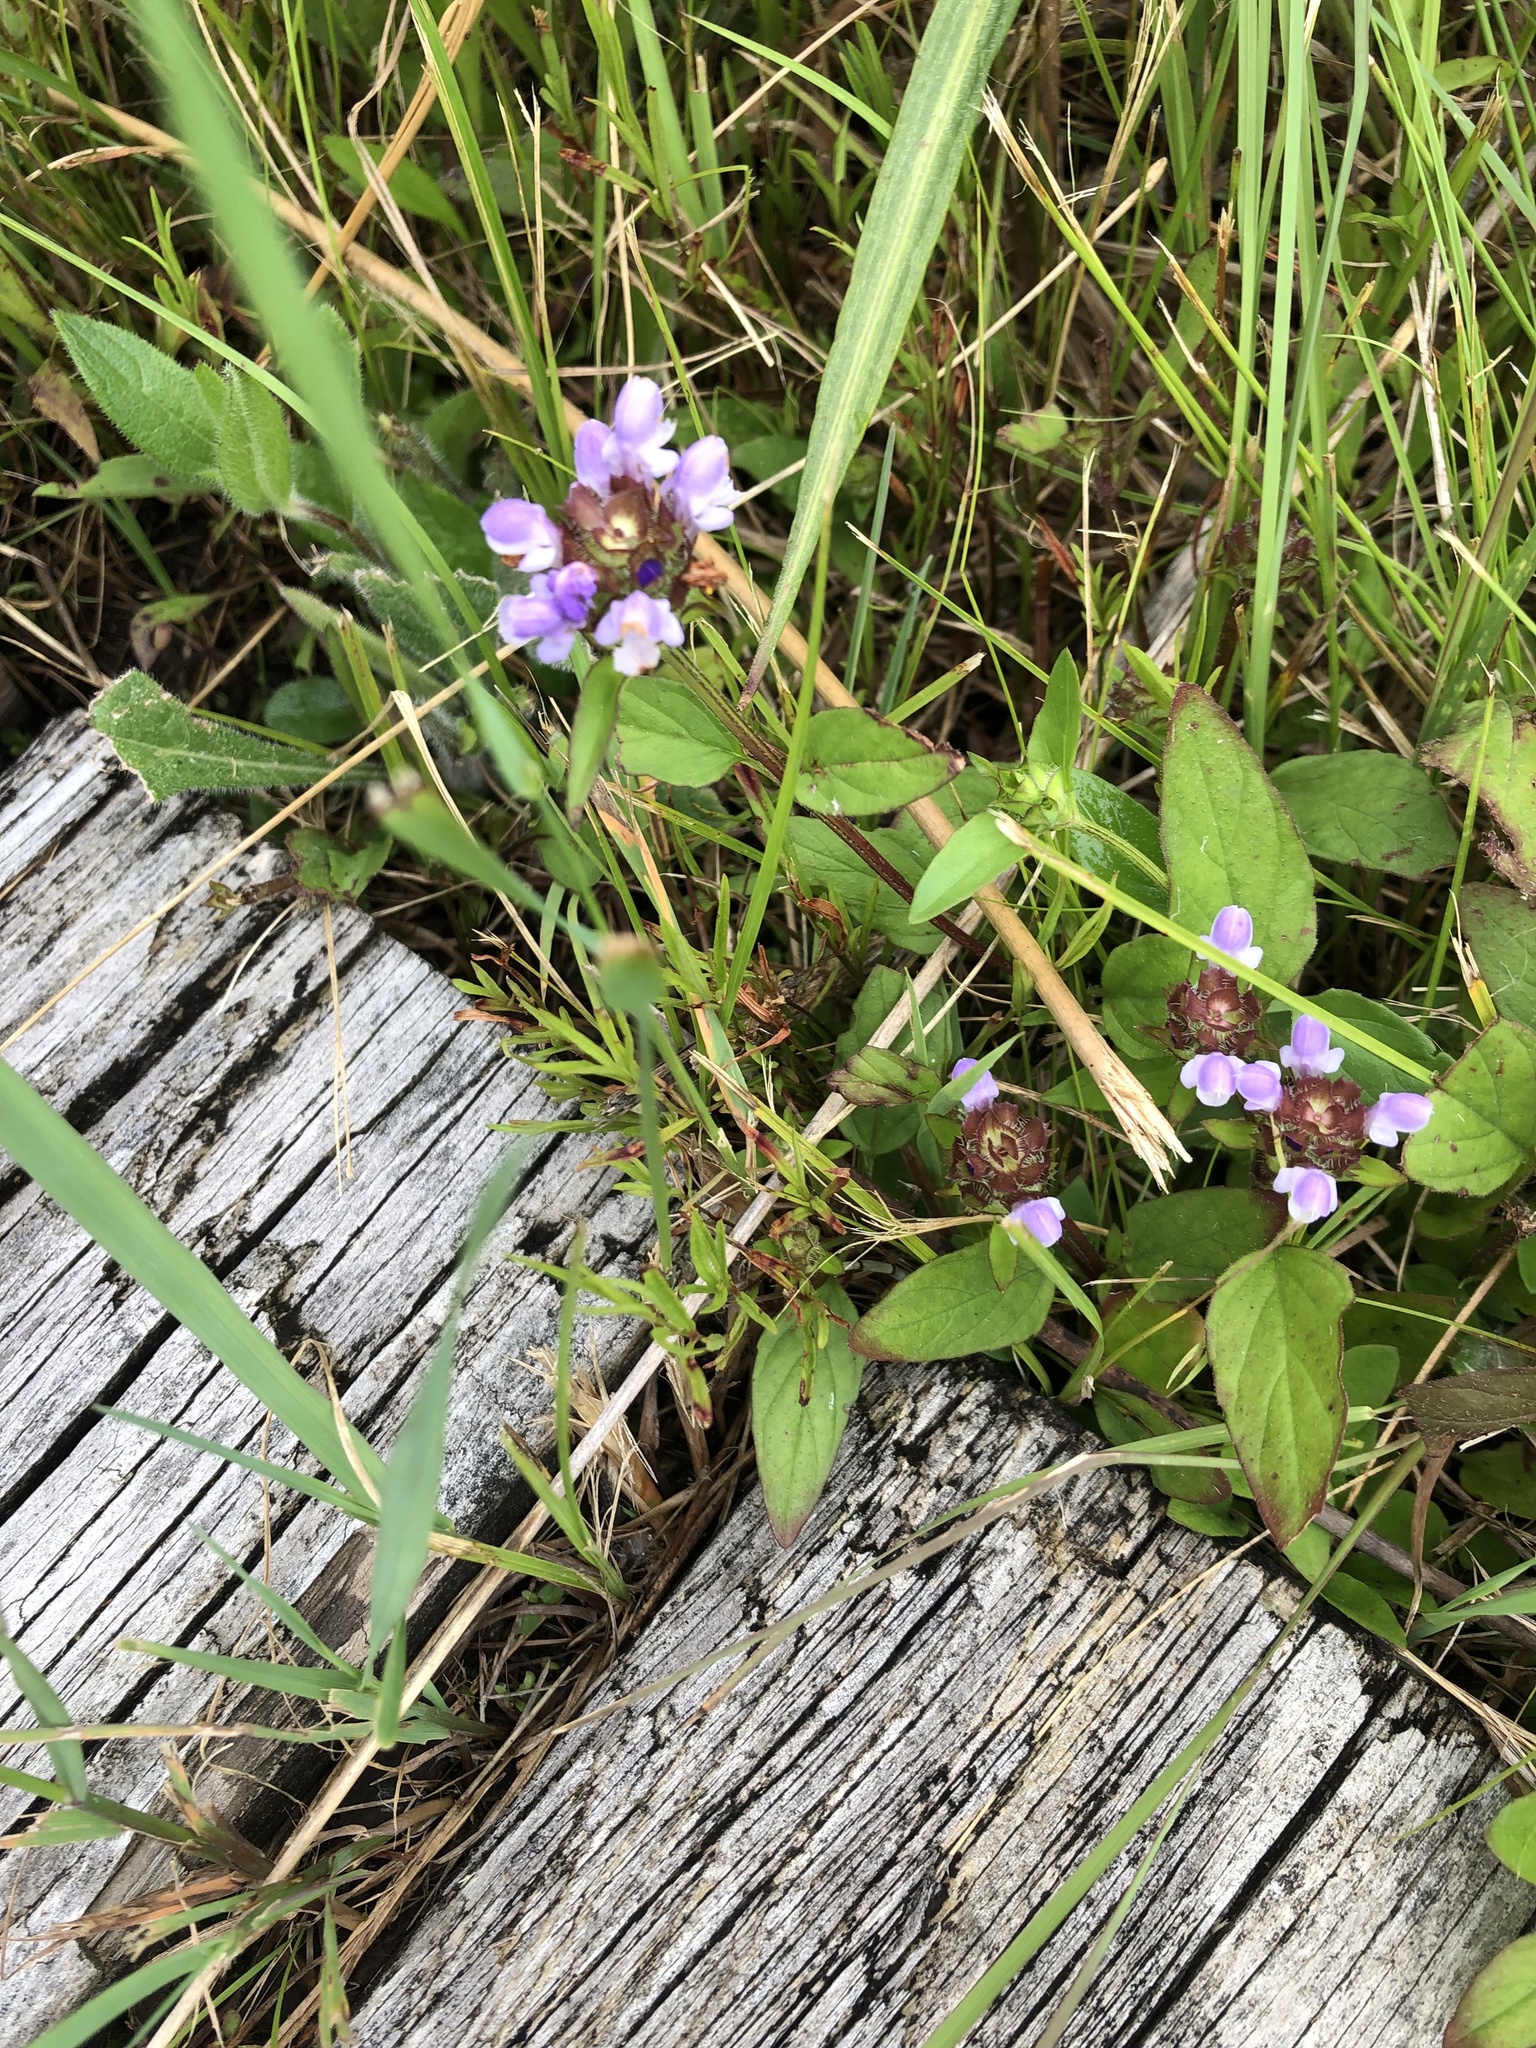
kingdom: Plantae
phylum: Tracheophyta
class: Magnoliopsida
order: Lamiales
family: Lamiaceae
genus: Prunella
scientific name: Prunella vulgaris
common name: Heal-all
